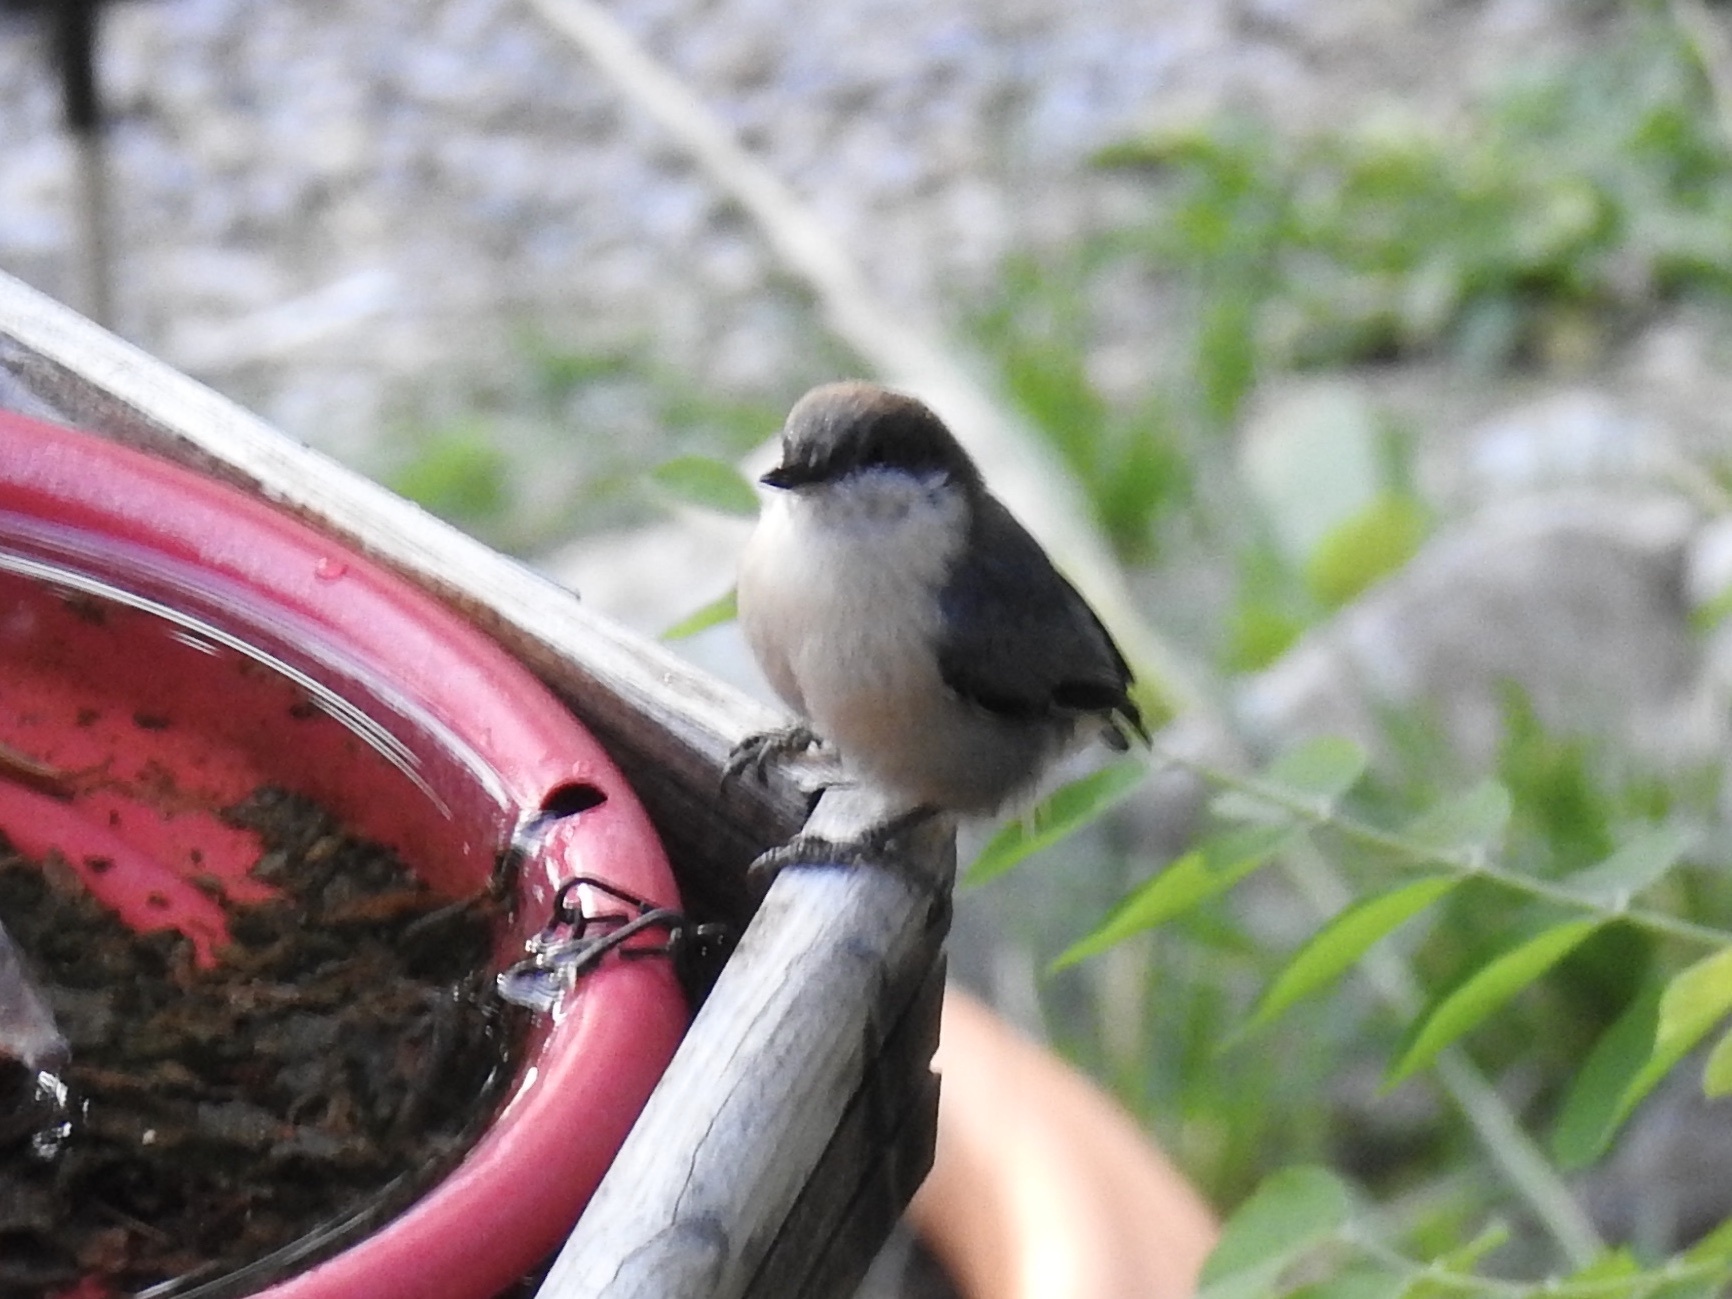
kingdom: Animalia
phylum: Chordata
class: Aves
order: Passeriformes
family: Sittidae
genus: Sitta
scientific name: Sitta pygmaea
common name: Pygmy nuthatch
